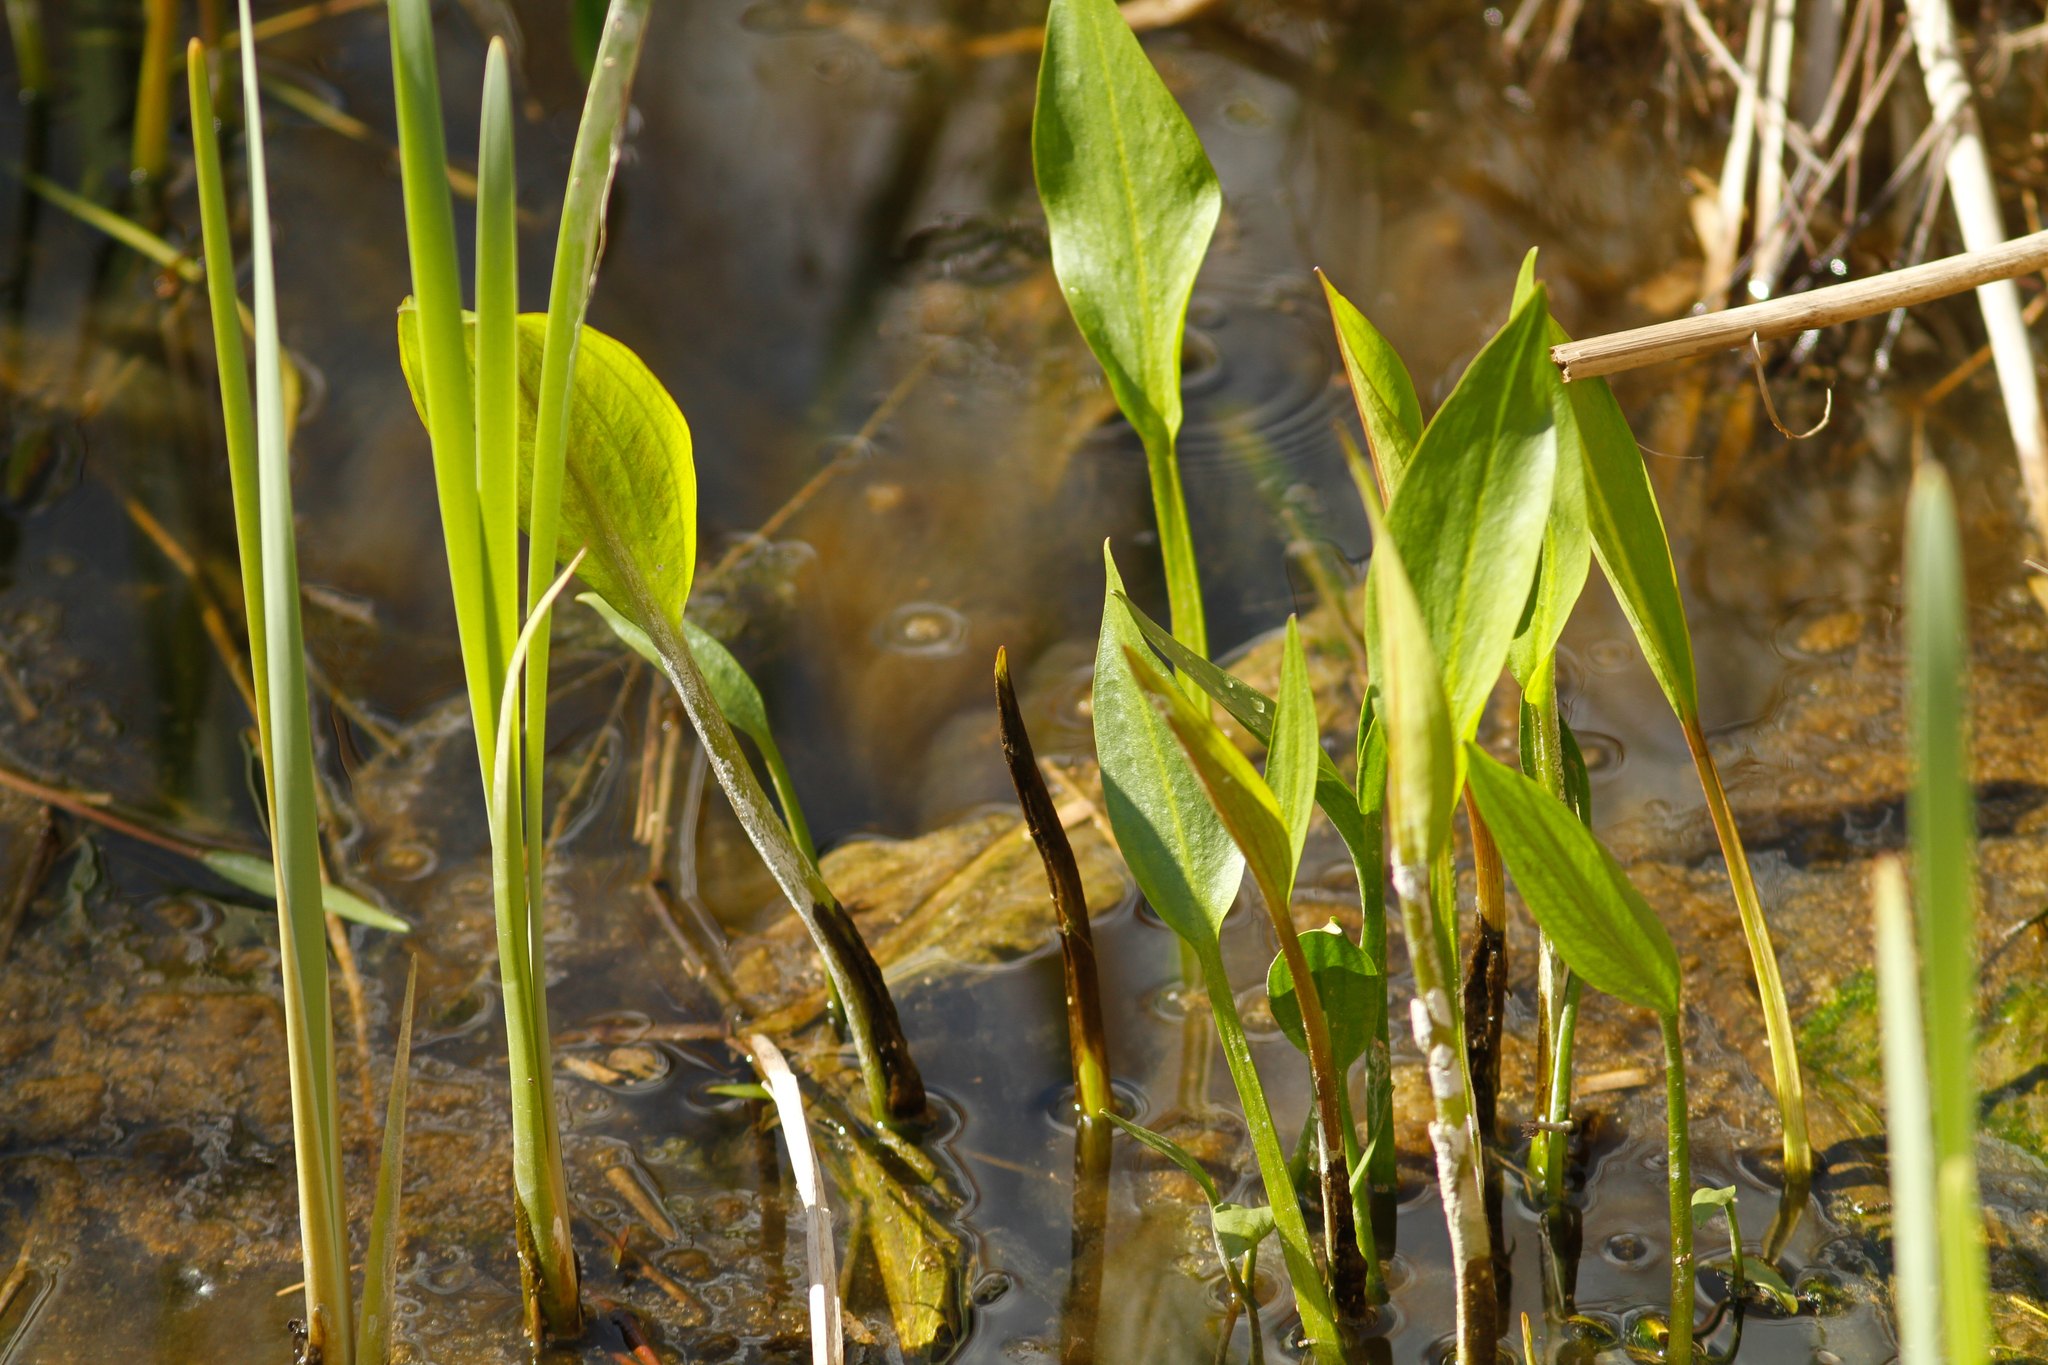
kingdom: Plantae
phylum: Tracheophyta
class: Liliopsida
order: Alismatales
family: Alismataceae
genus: Alisma
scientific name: Alisma lanceolatum
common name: Narrow-leaved water-plantain
